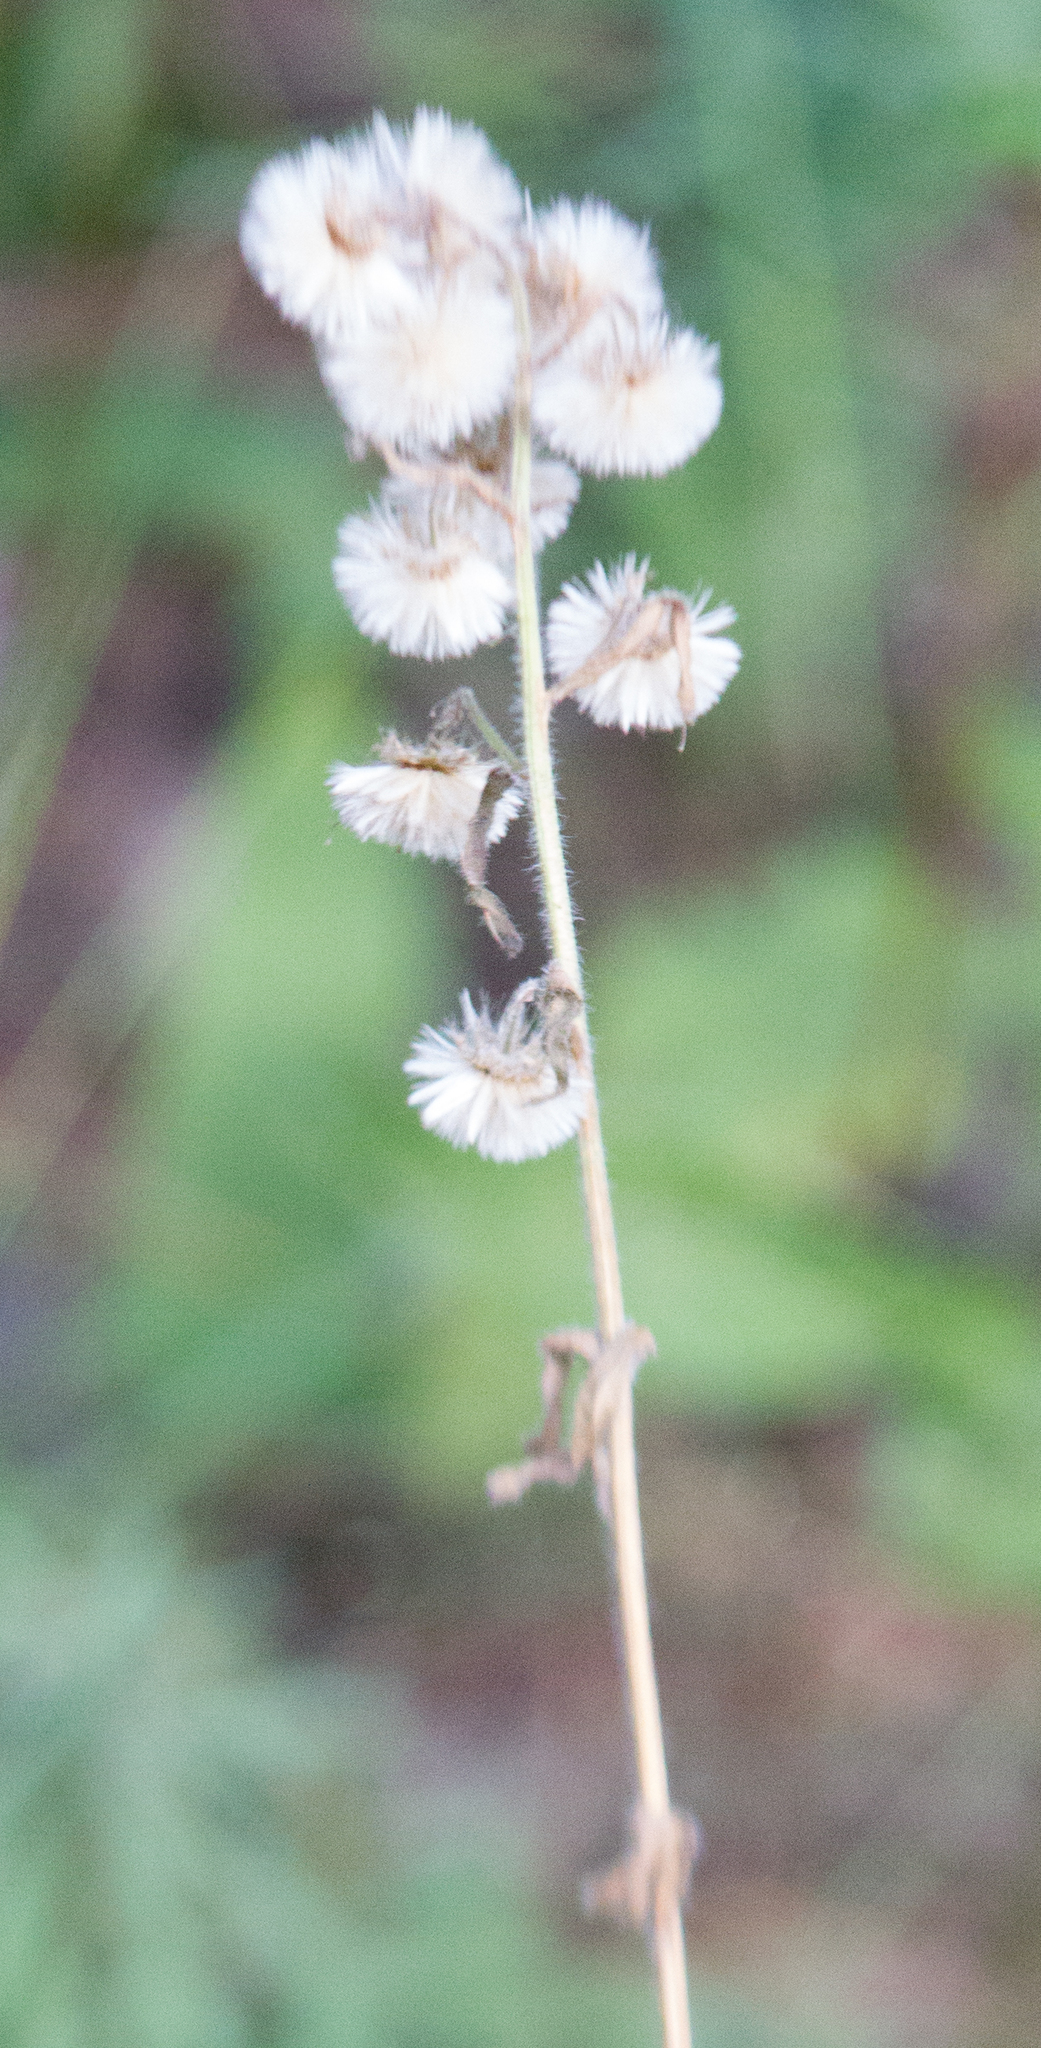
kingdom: Plantae
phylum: Tracheophyta
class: Magnoliopsida
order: Asterales
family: Asteraceae
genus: Erigeron
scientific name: Erigeron acris
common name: Blue fleabane
